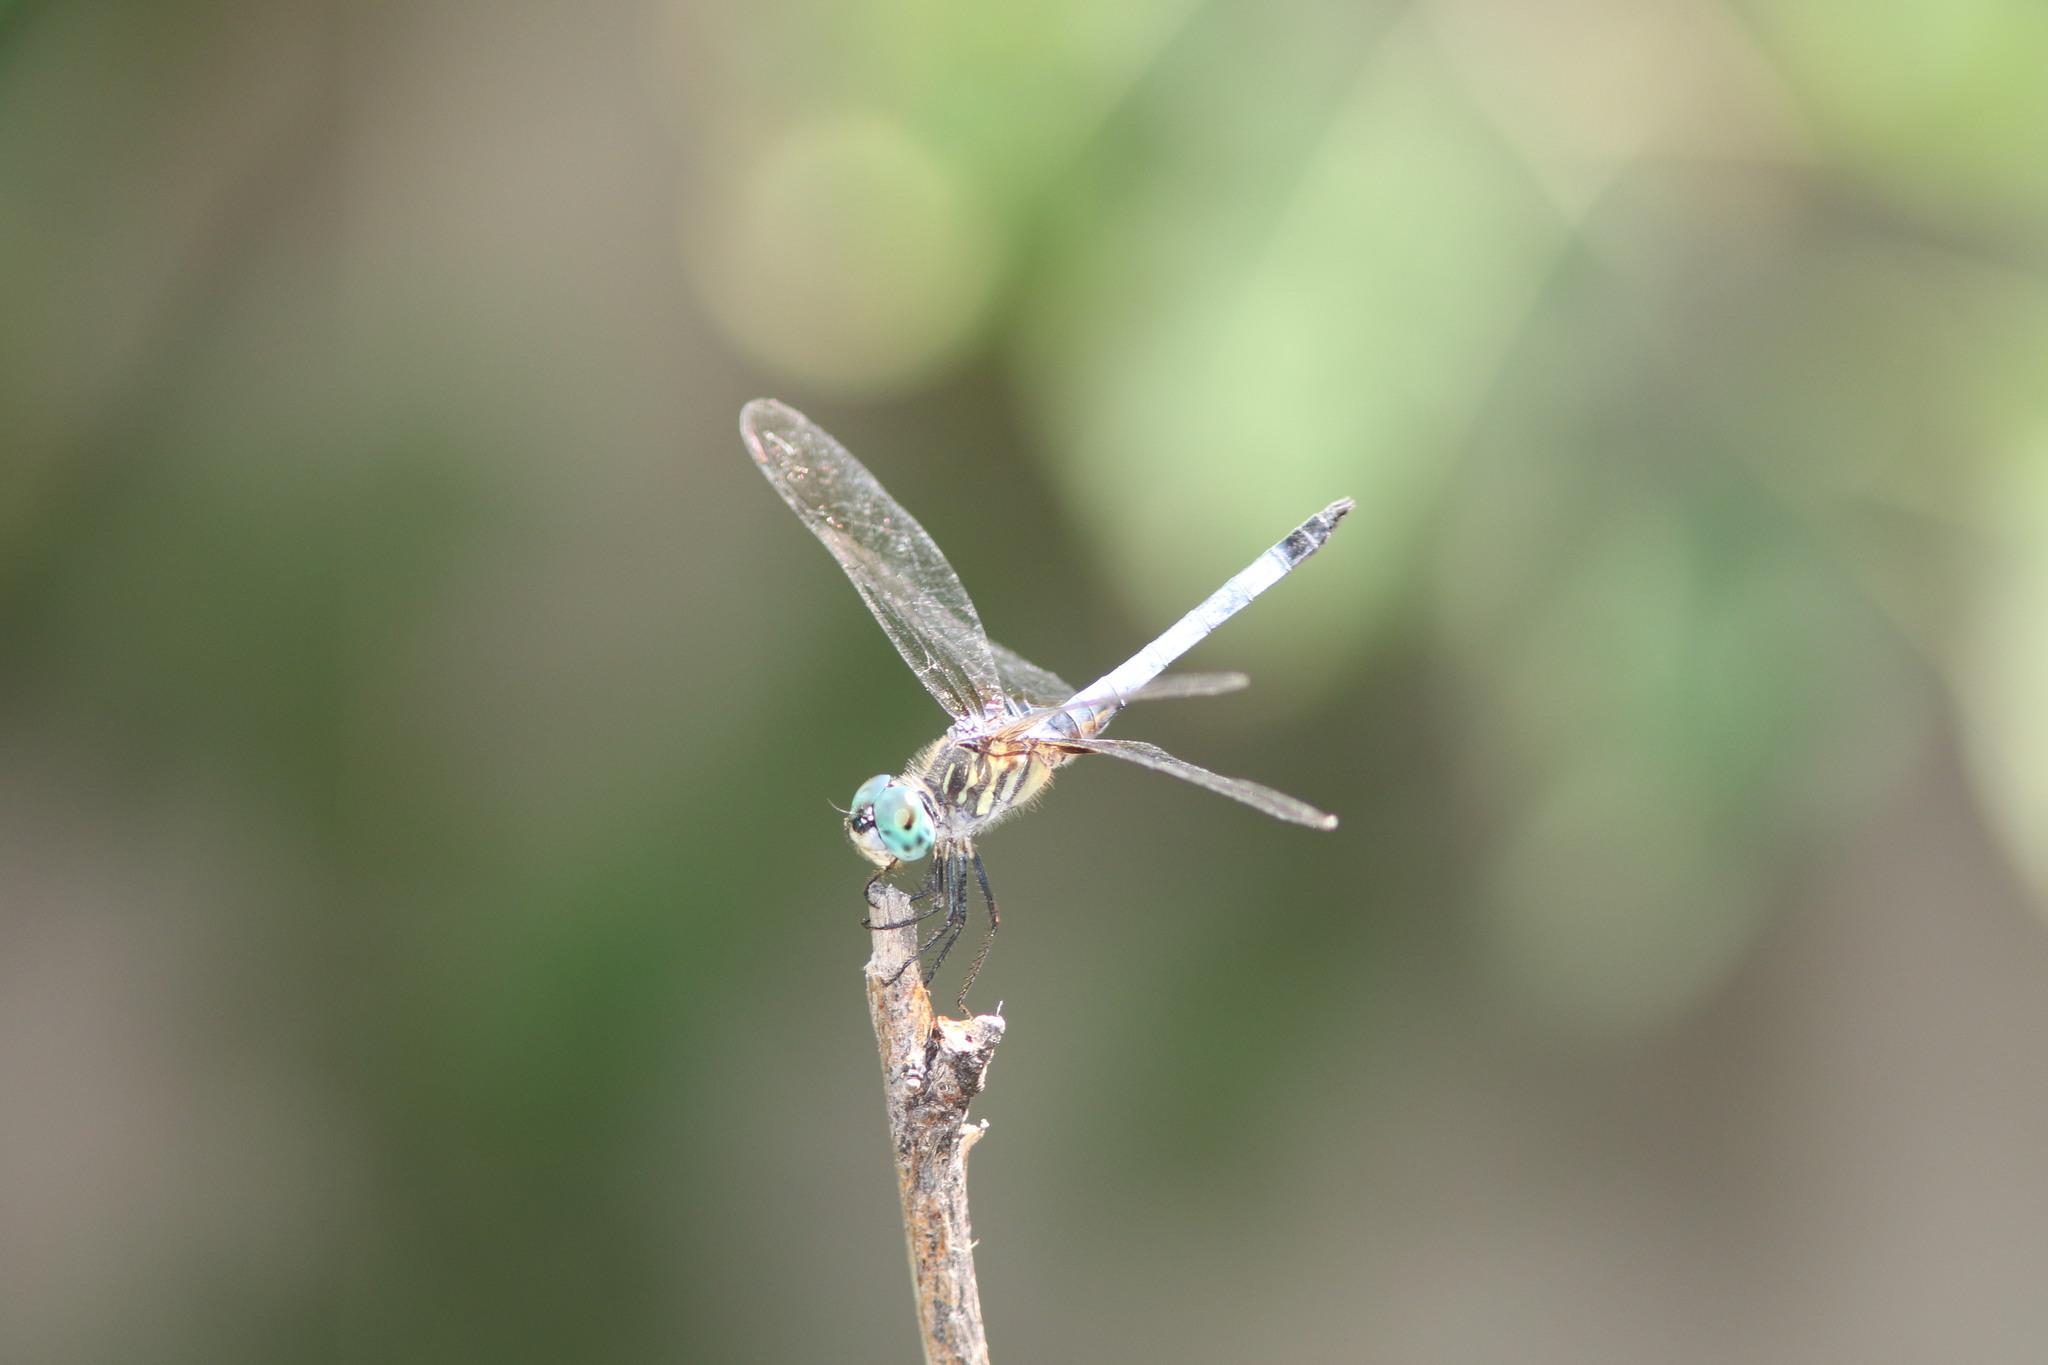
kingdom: Animalia
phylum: Arthropoda
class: Insecta
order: Odonata
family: Libellulidae
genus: Pachydiplax
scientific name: Pachydiplax longipennis
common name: Blue dasher
